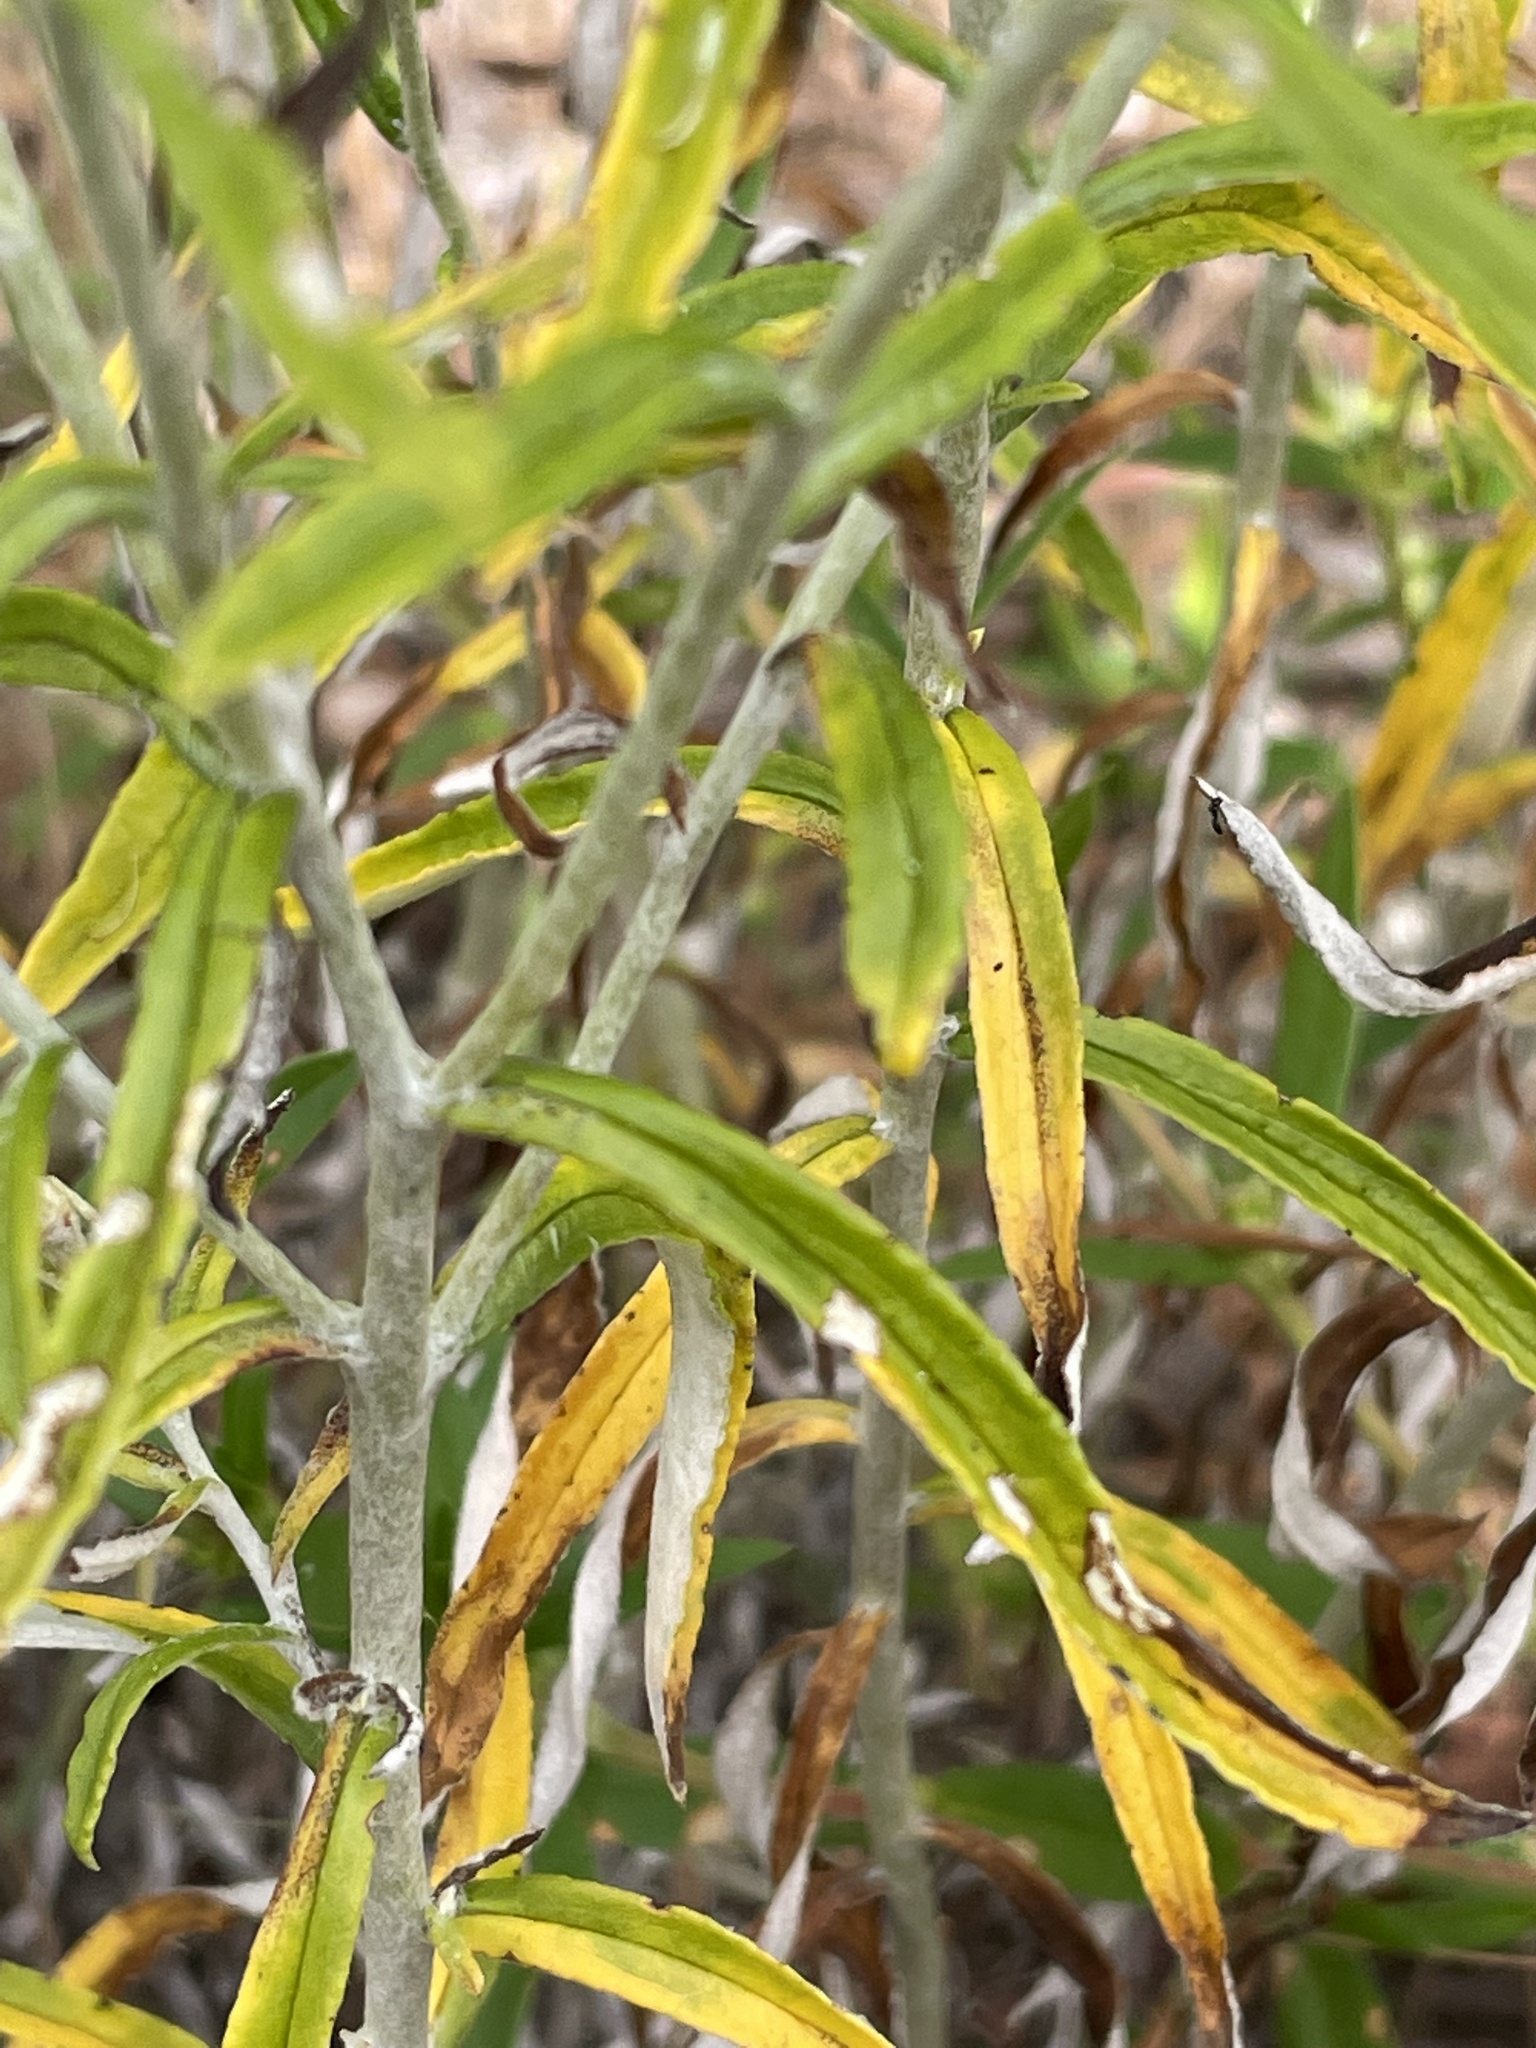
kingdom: Plantae
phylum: Tracheophyta
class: Magnoliopsida
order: Asterales
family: Asteraceae
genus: Pseudognaphalium
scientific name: Pseudognaphalium obtusifolium
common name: Eastern rabbit-tobacco
